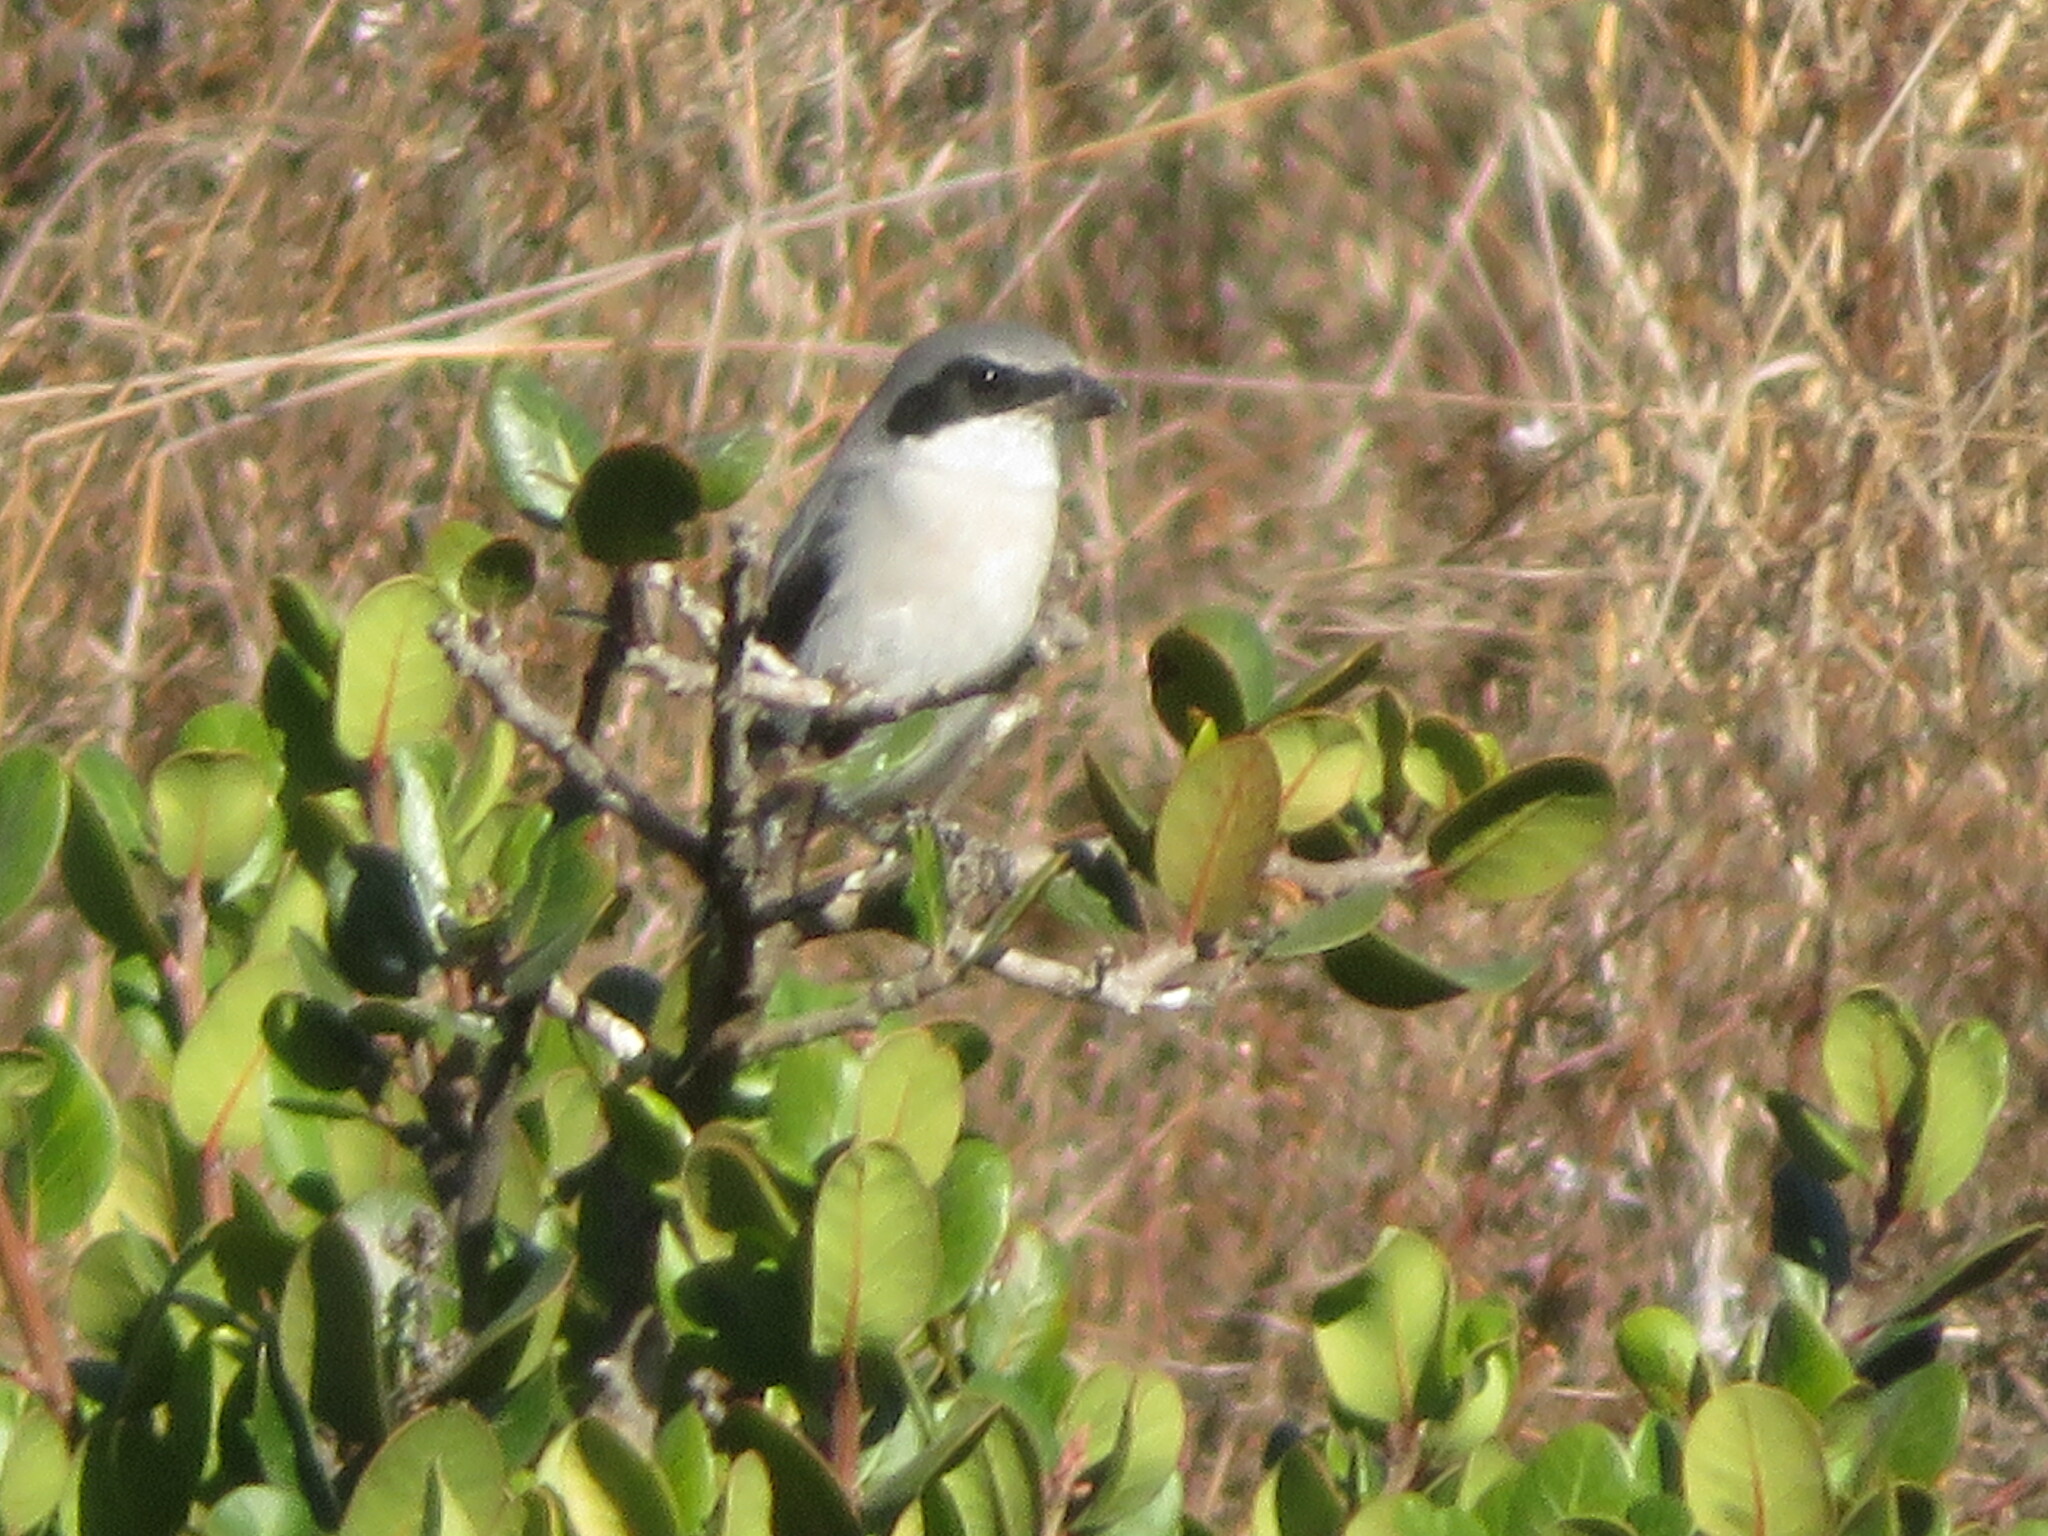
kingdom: Animalia
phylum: Chordata
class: Aves
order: Passeriformes
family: Laniidae
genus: Lanius
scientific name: Lanius ludovicianus
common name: Loggerhead shrike
